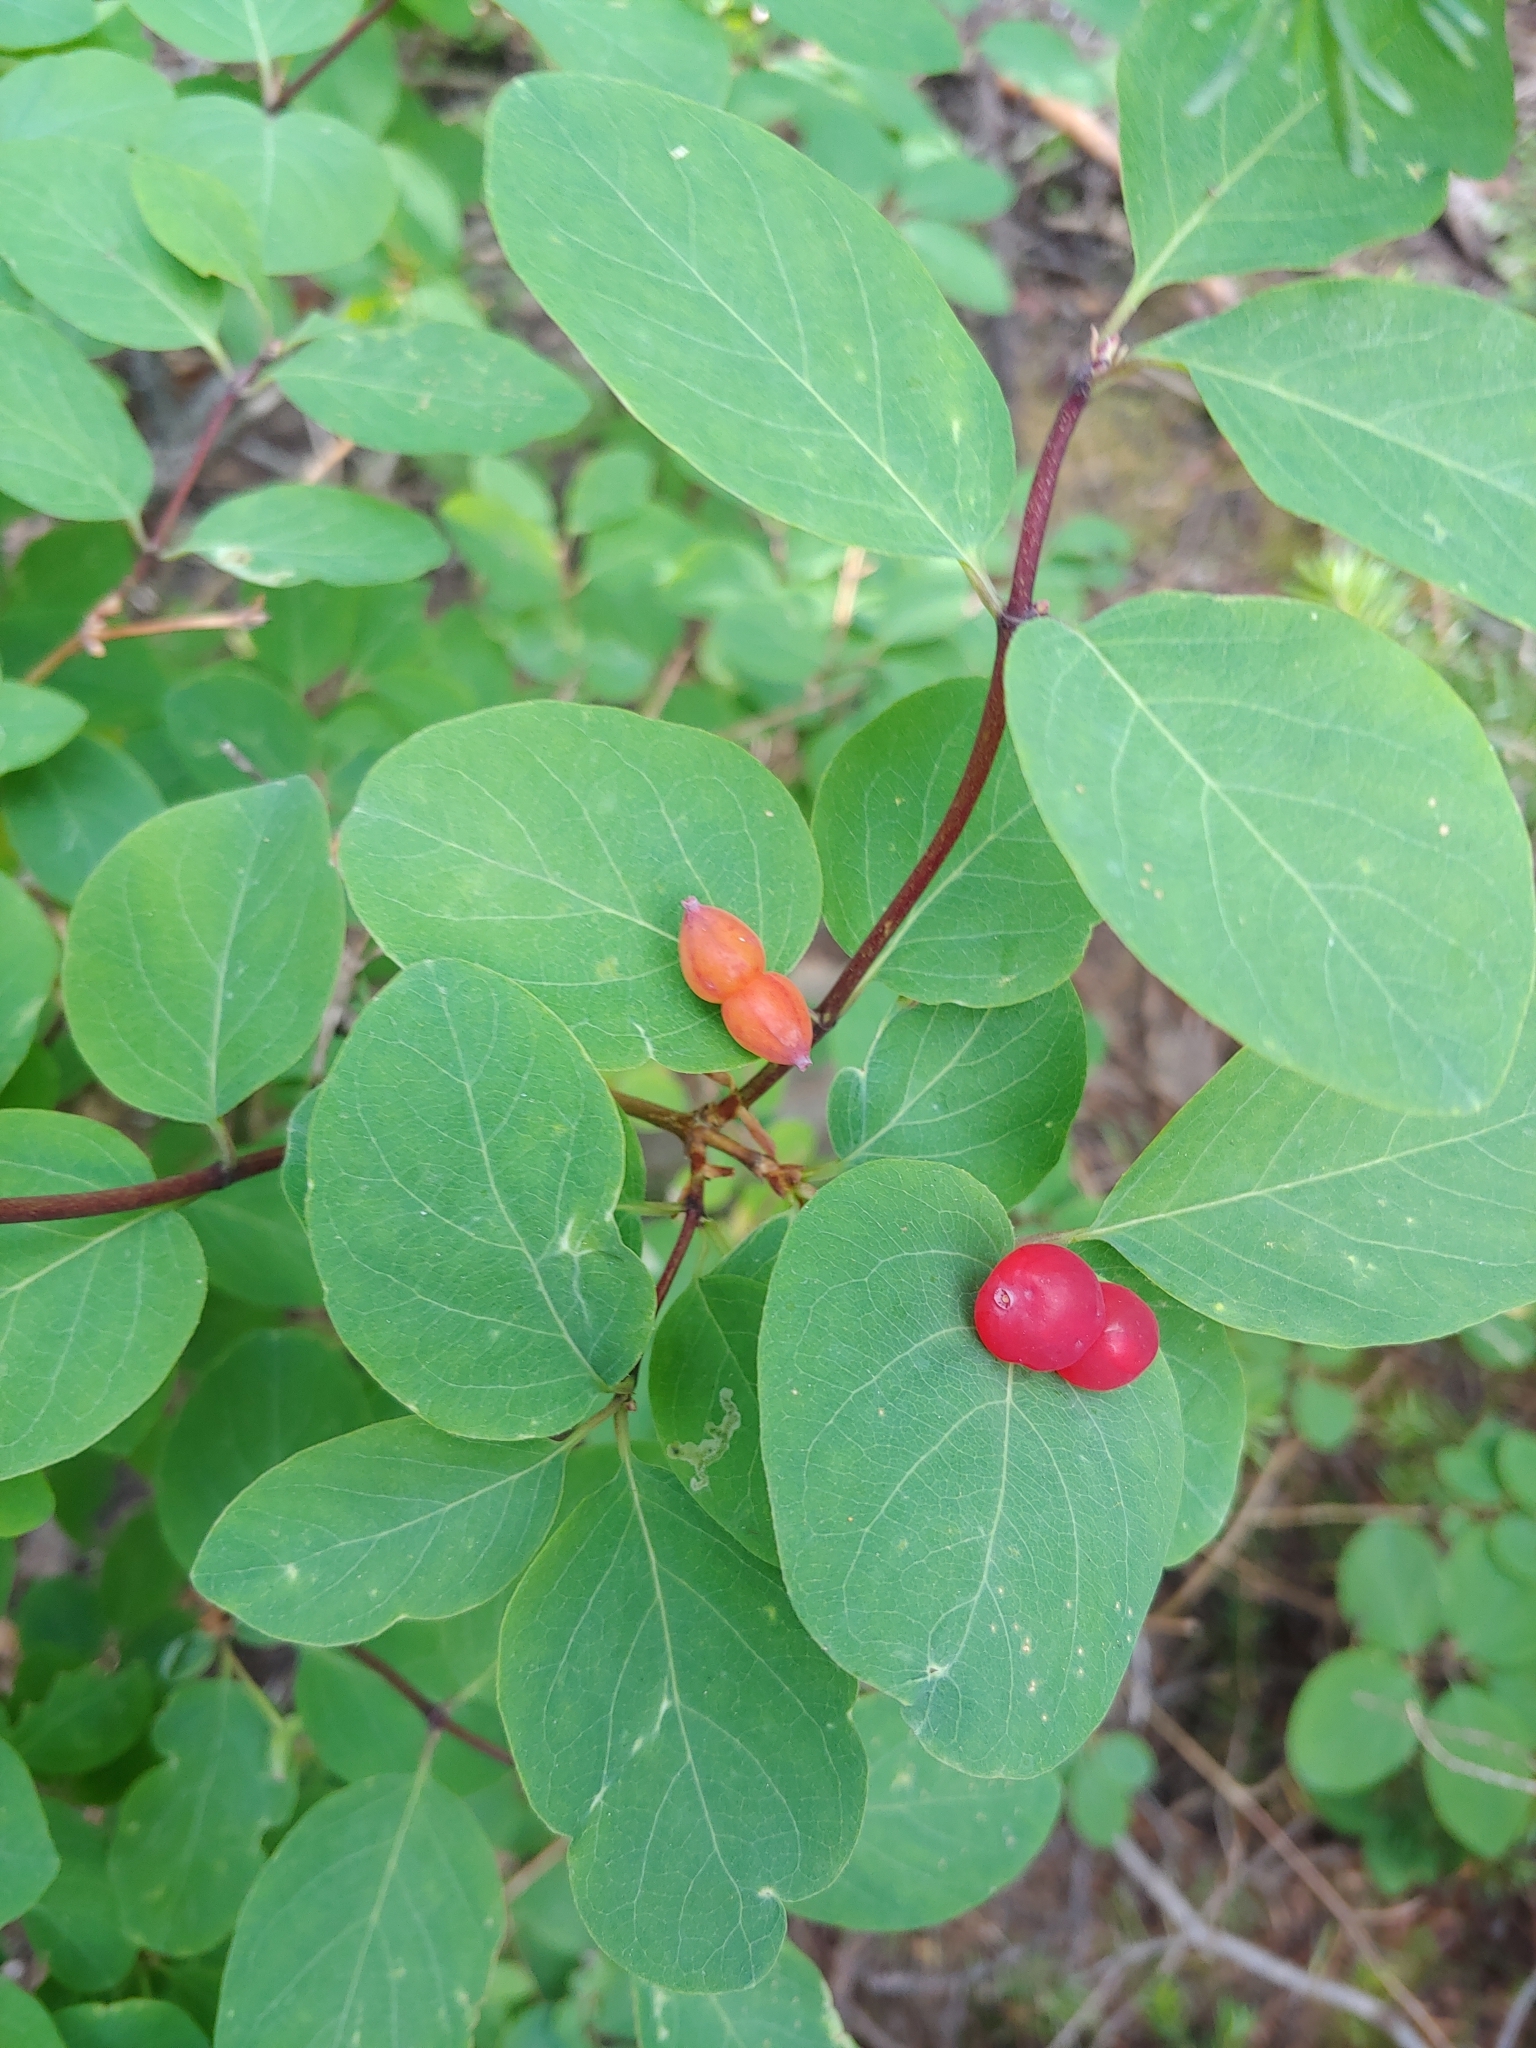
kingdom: Plantae
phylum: Tracheophyta
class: Magnoliopsida
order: Dipsacales
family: Caprifoliaceae
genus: Lonicera
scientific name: Lonicera utahensis
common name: Utah honeysuckle
